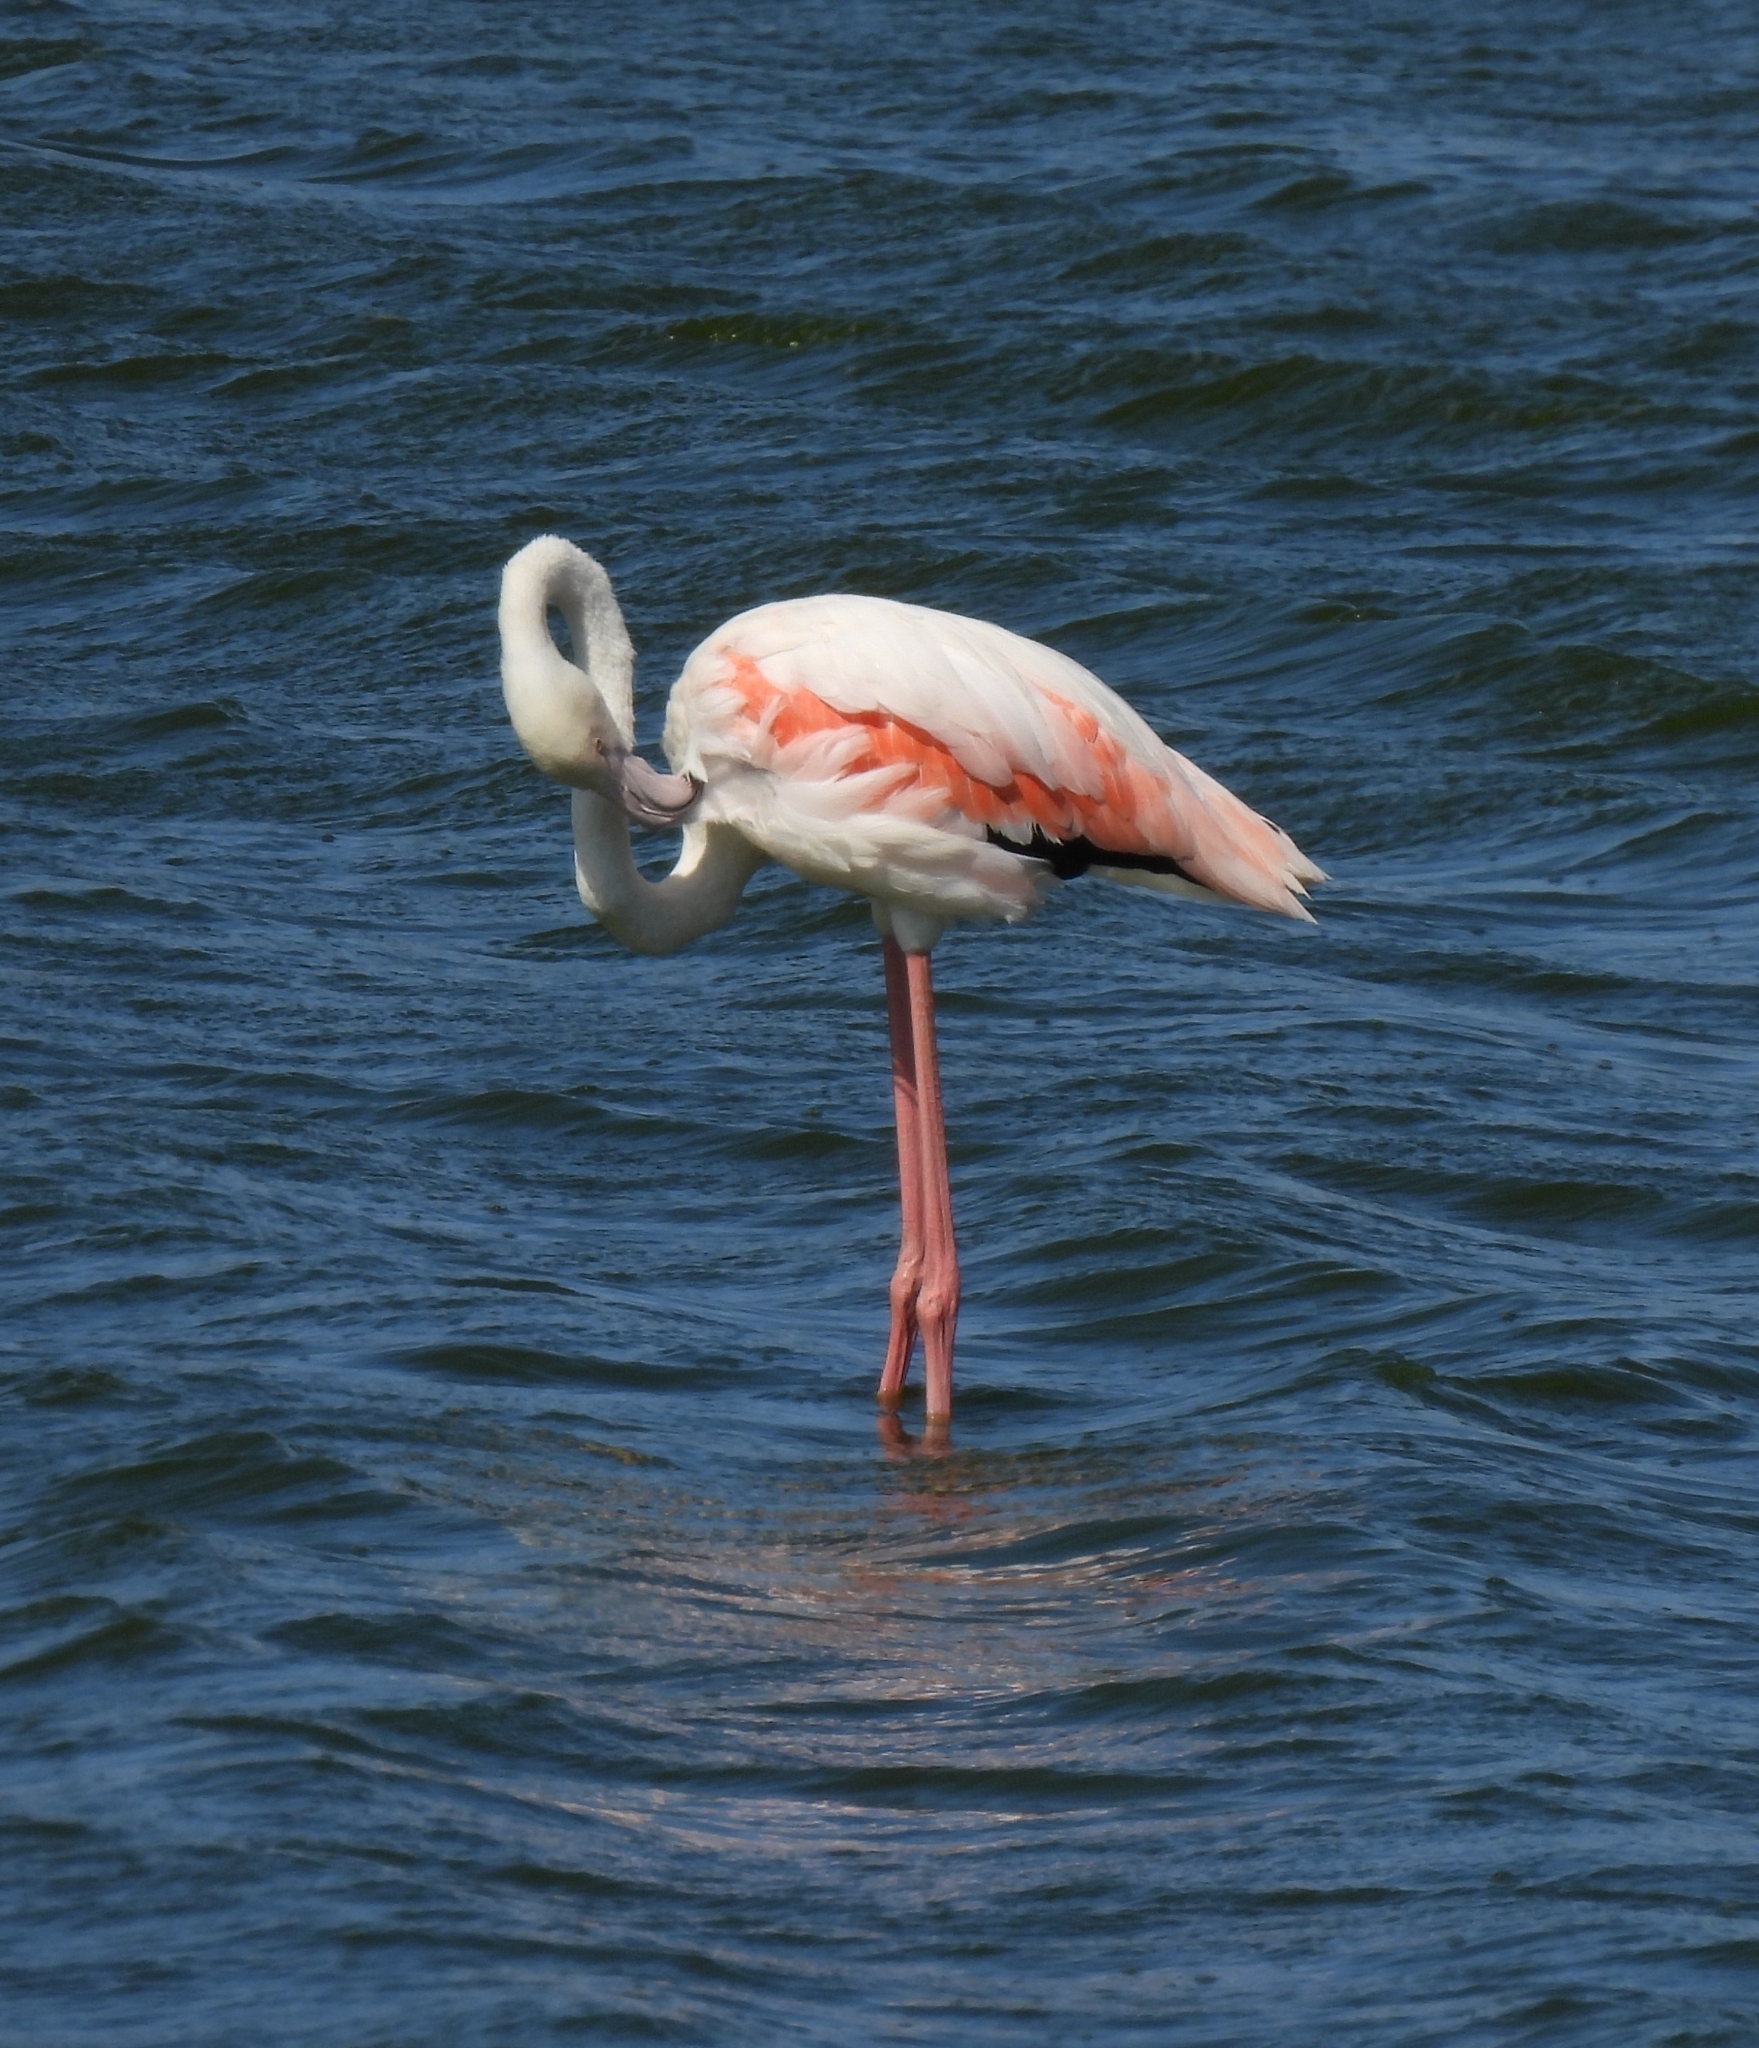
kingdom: Animalia
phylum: Chordata
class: Aves
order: Phoenicopteriformes
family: Phoenicopteridae
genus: Phoenicopterus
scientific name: Phoenicopterus roseus
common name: Greater flamingo
